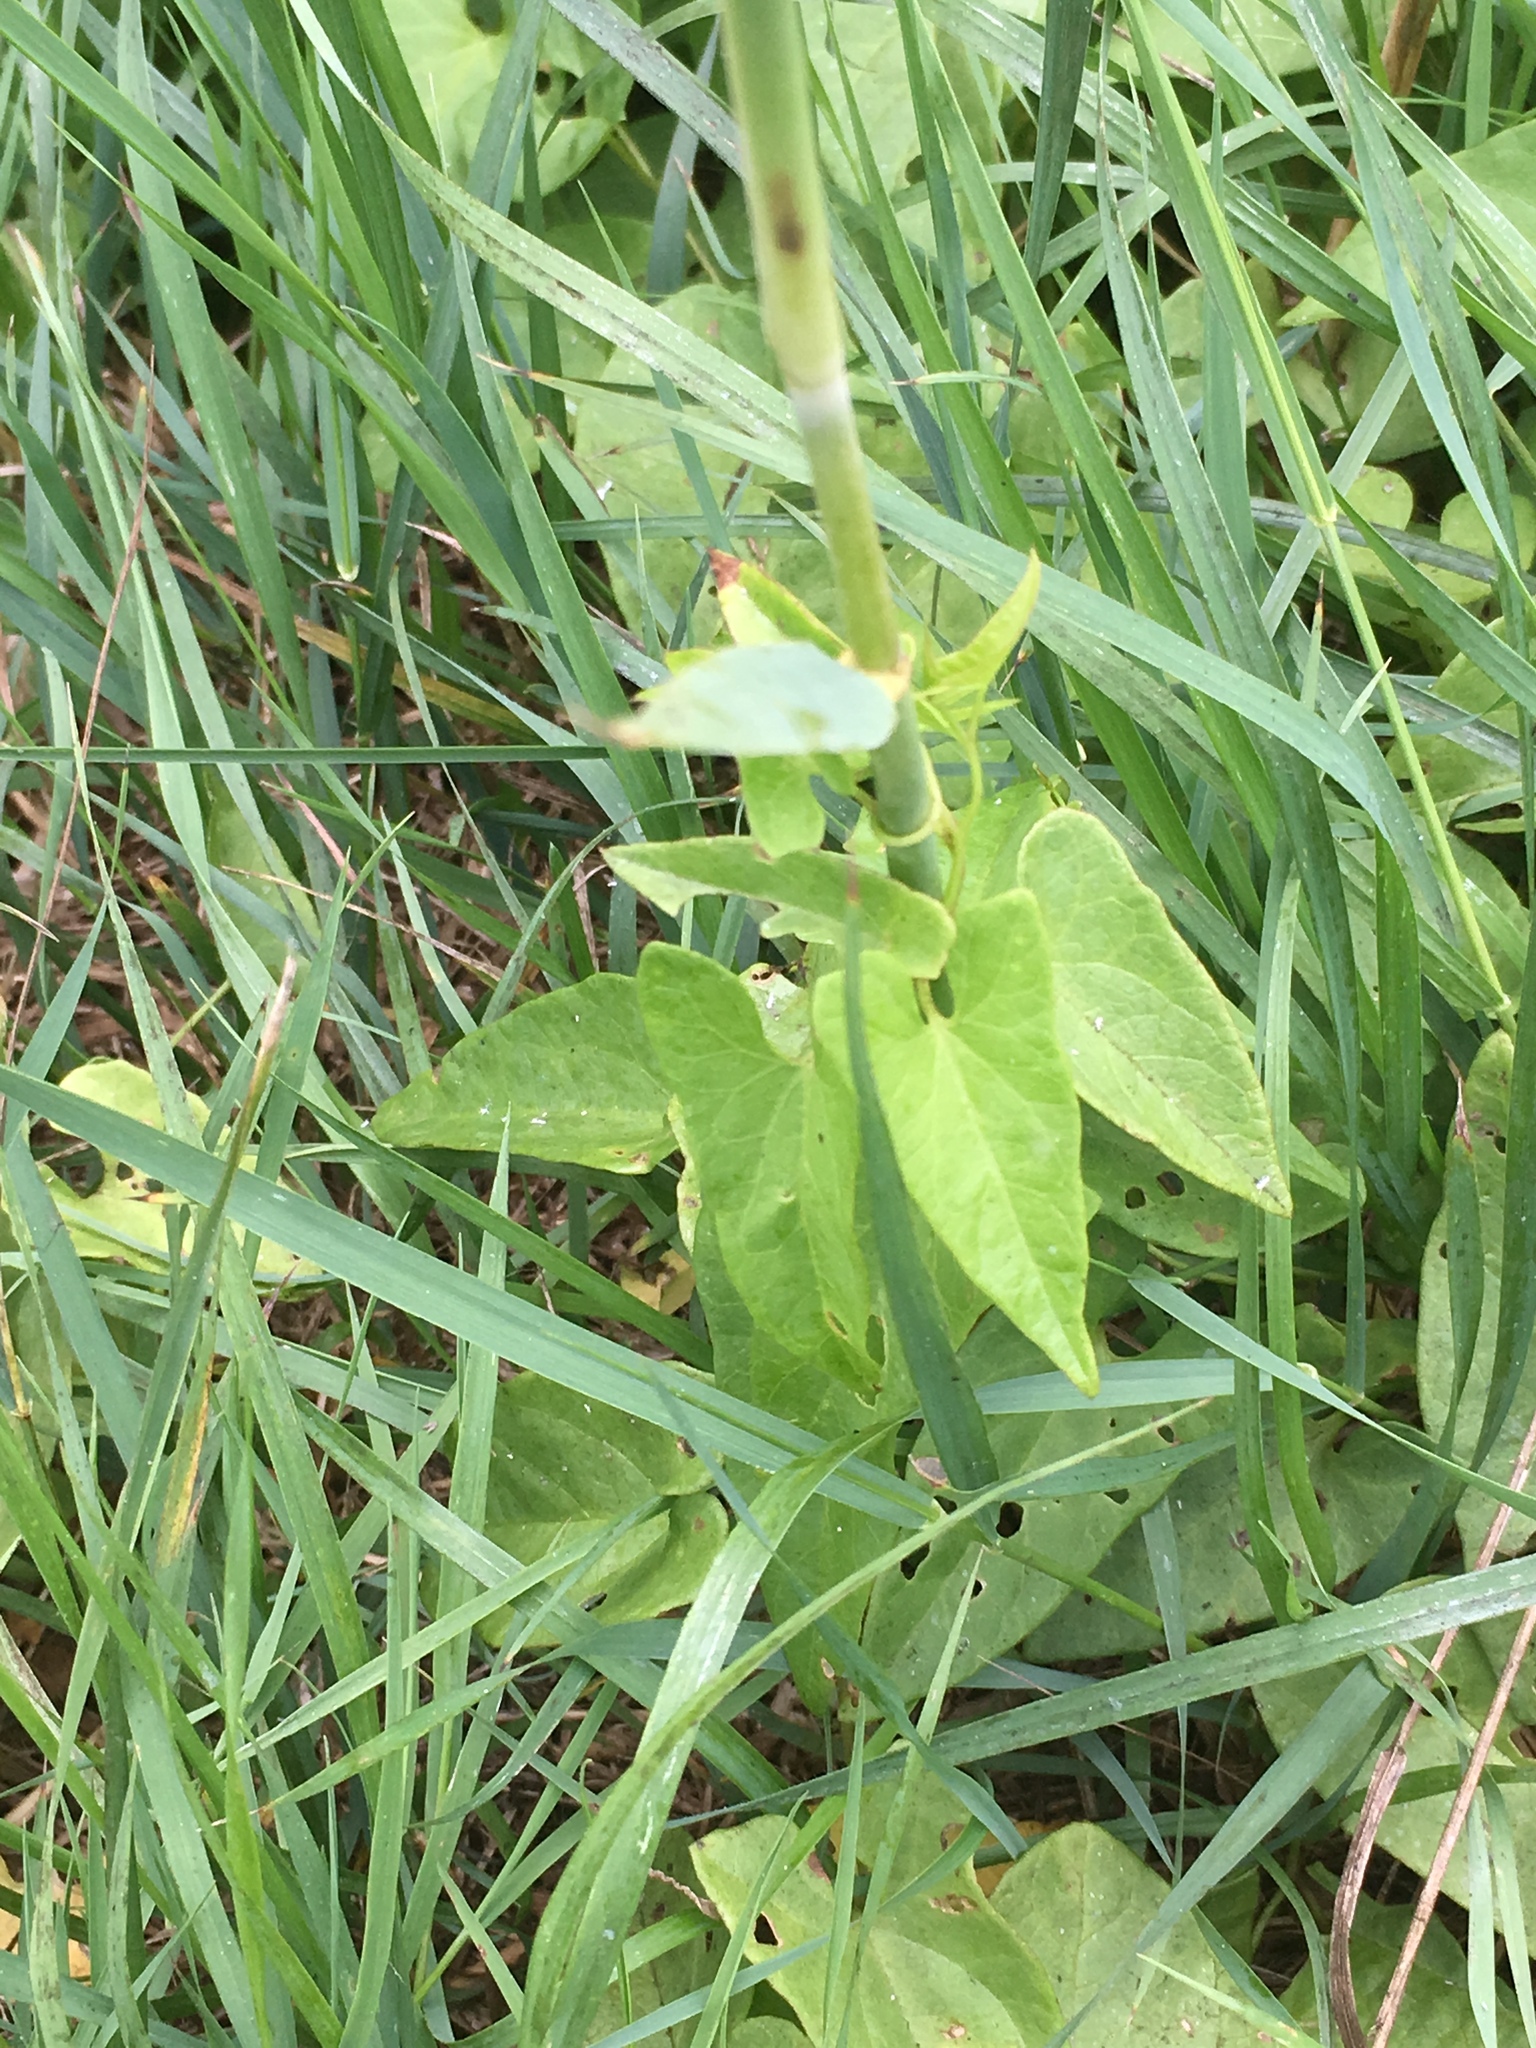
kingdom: Plantae
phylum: Tracheophyta
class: Magnoliopsida
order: Solanales
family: Convolvulaceae
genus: Calystegia
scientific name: Calystegia
